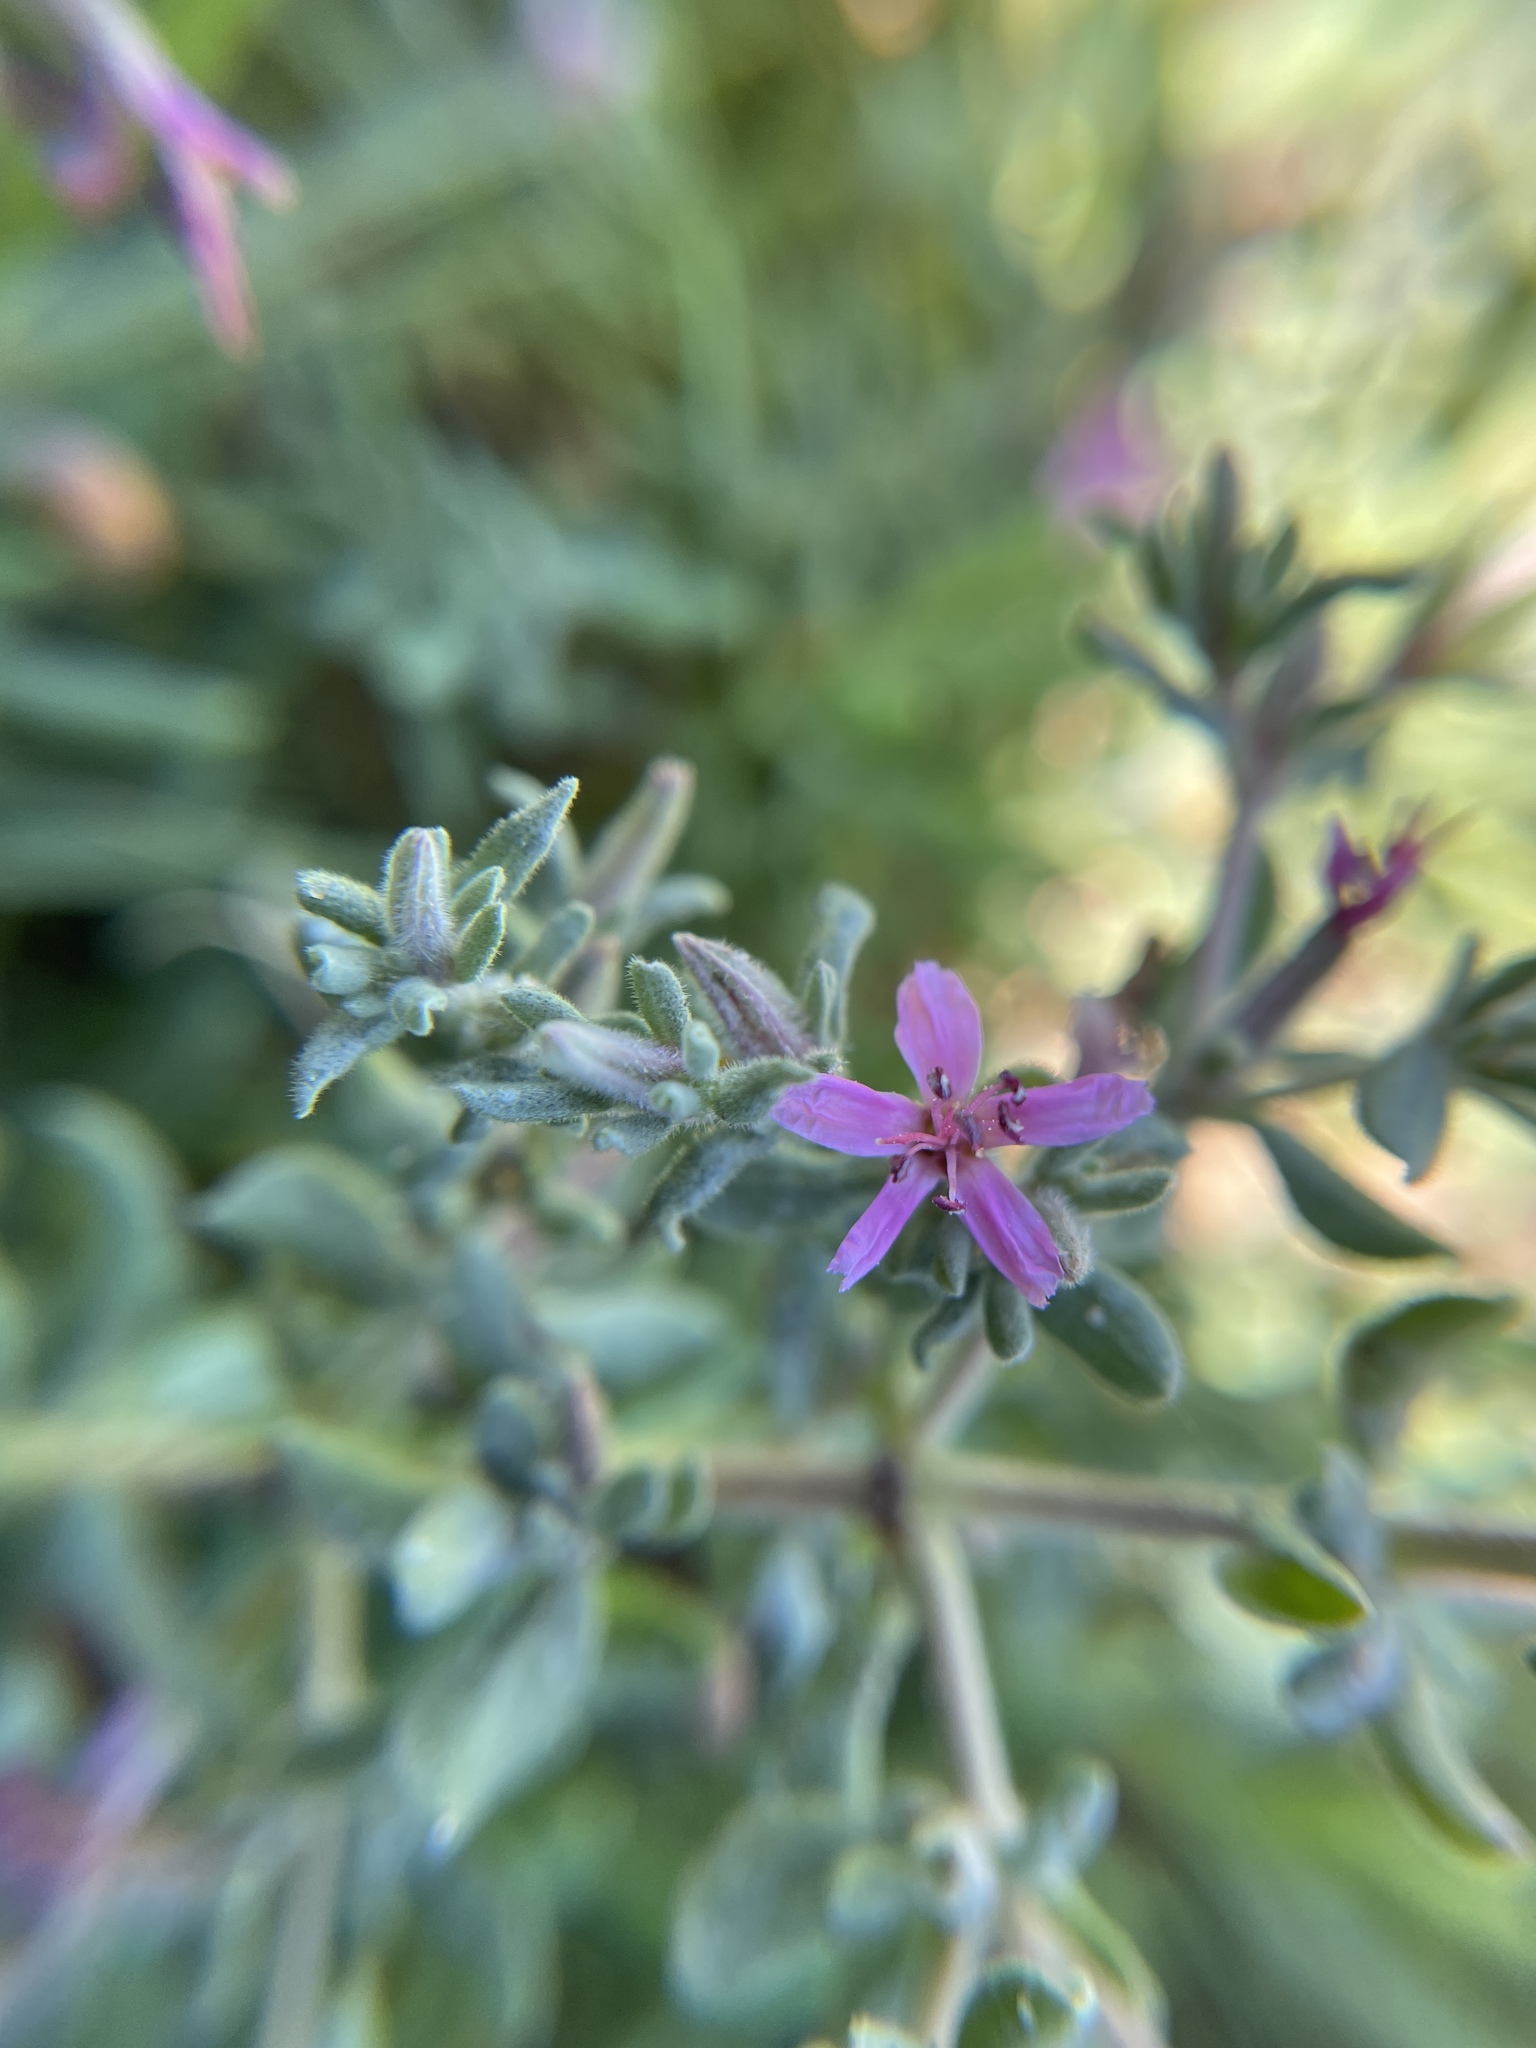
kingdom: Plantae
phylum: Tracheophyta
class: Magnoliopsida
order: Caryophyllales
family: Frankeniaceae
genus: Frankenia
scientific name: Frankenia salina
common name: Alkali seaheath
